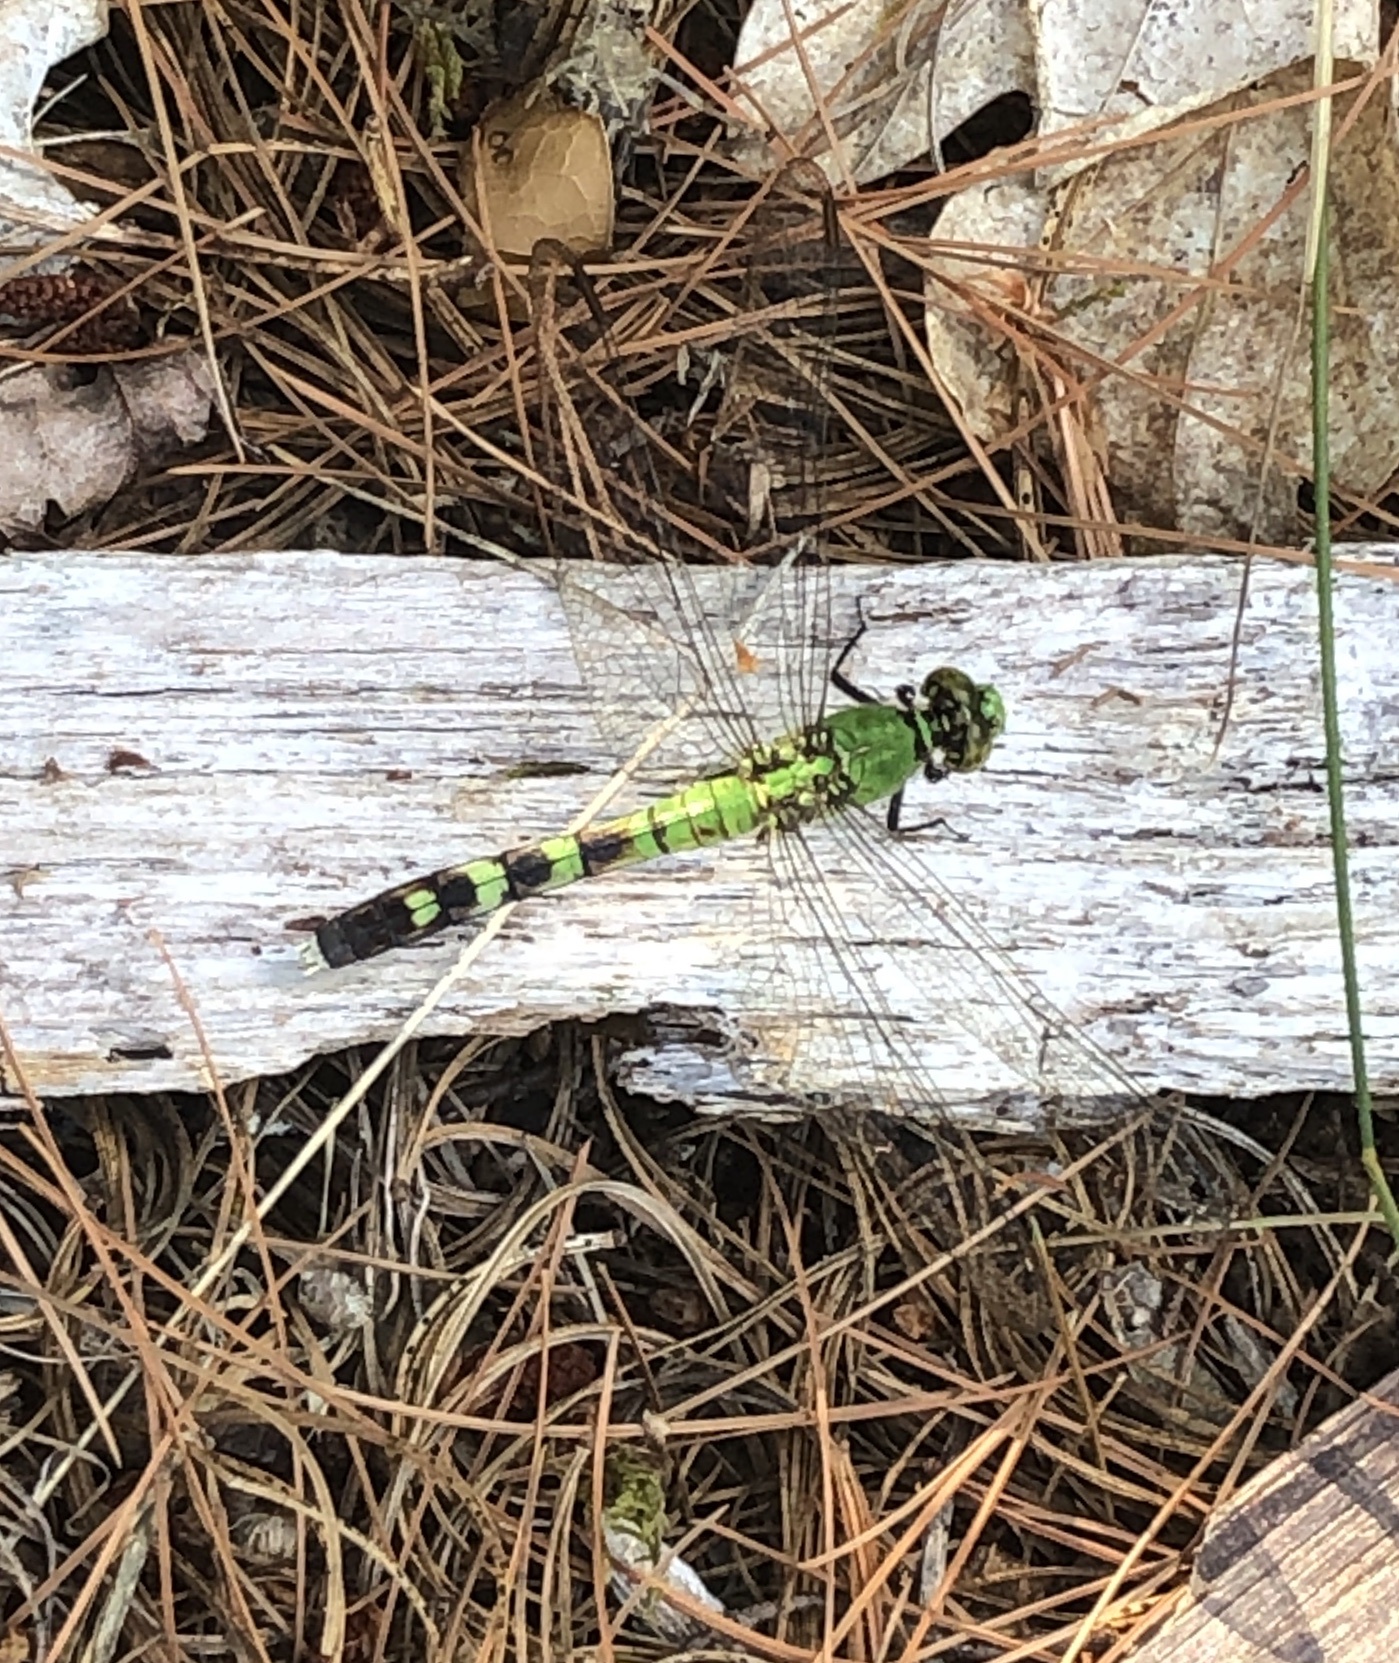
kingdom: Animalia
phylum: Arthropoda
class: Insecta
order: Odonata
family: Libellulidae
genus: Erythemis
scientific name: Erythemis simplicicollis
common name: Eastern pondhawk
